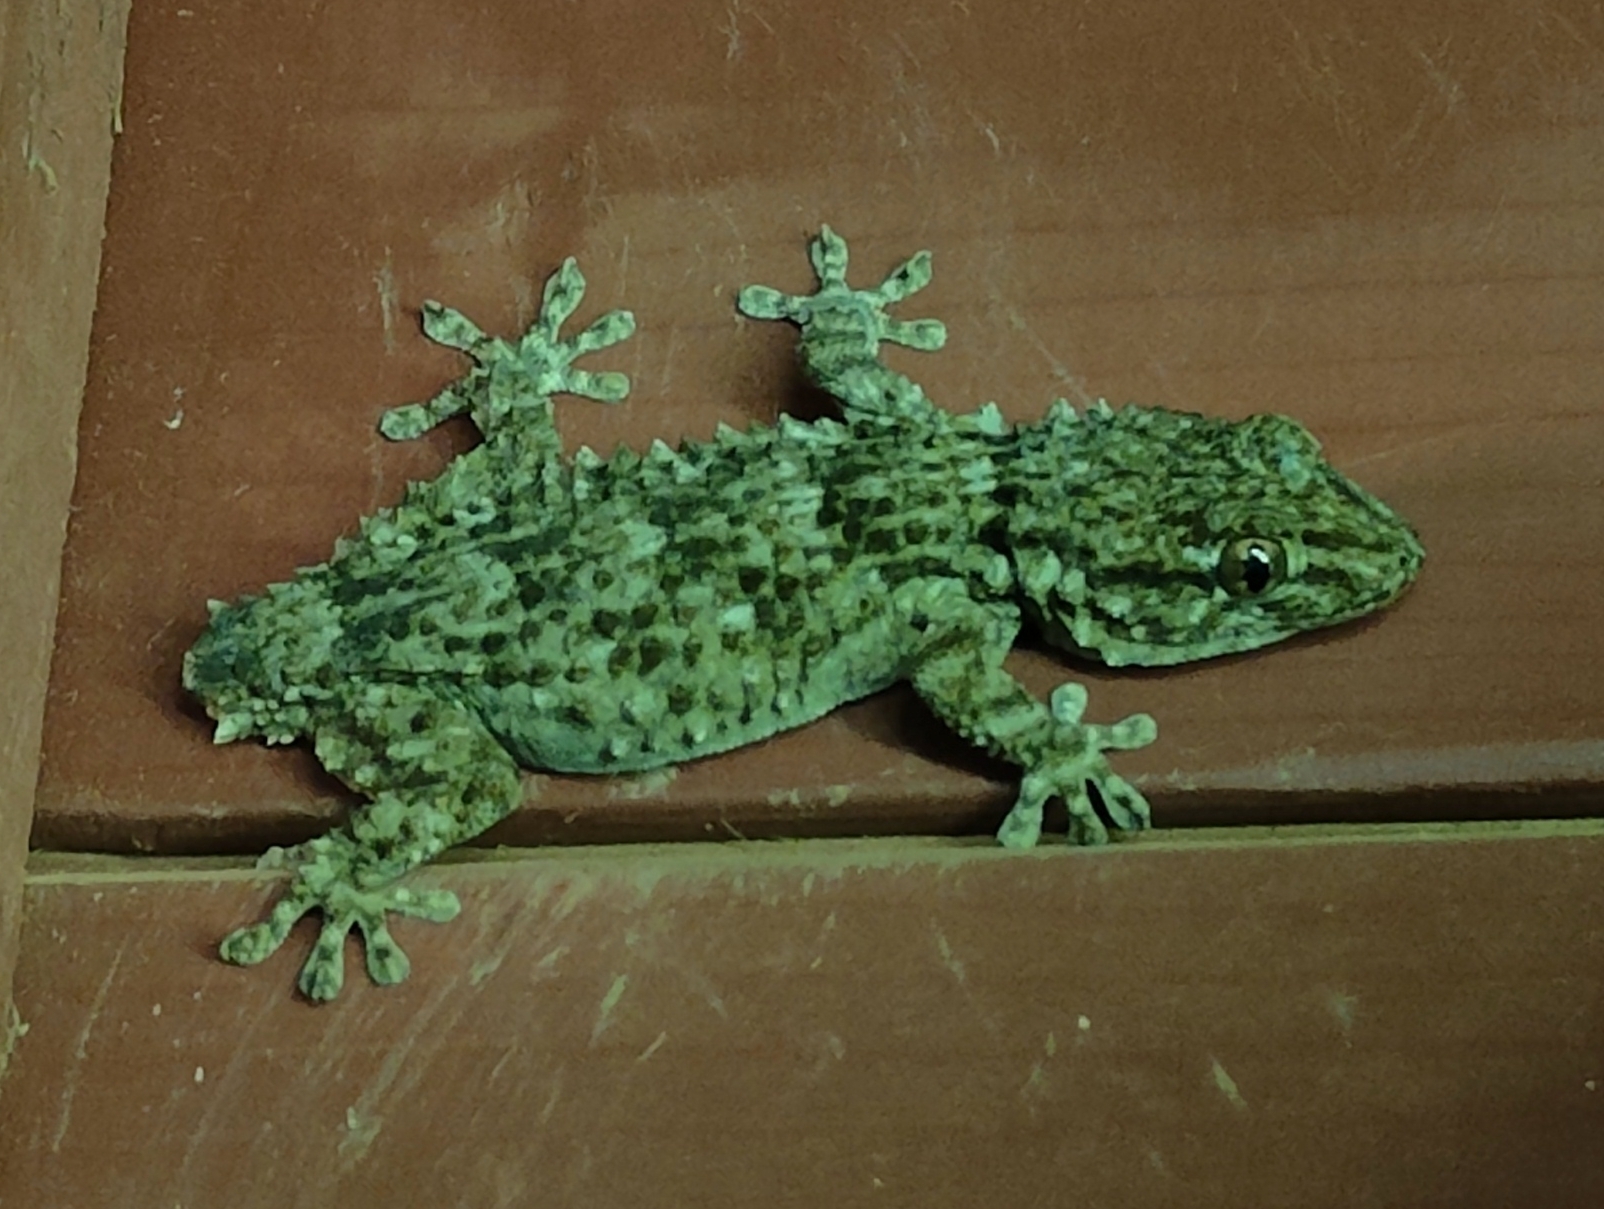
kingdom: Animalia
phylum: Chordata
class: Squamata
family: Phyllodactylidae
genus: Tarentola
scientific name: Tarentola mauritanica
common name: Moorish gecko
